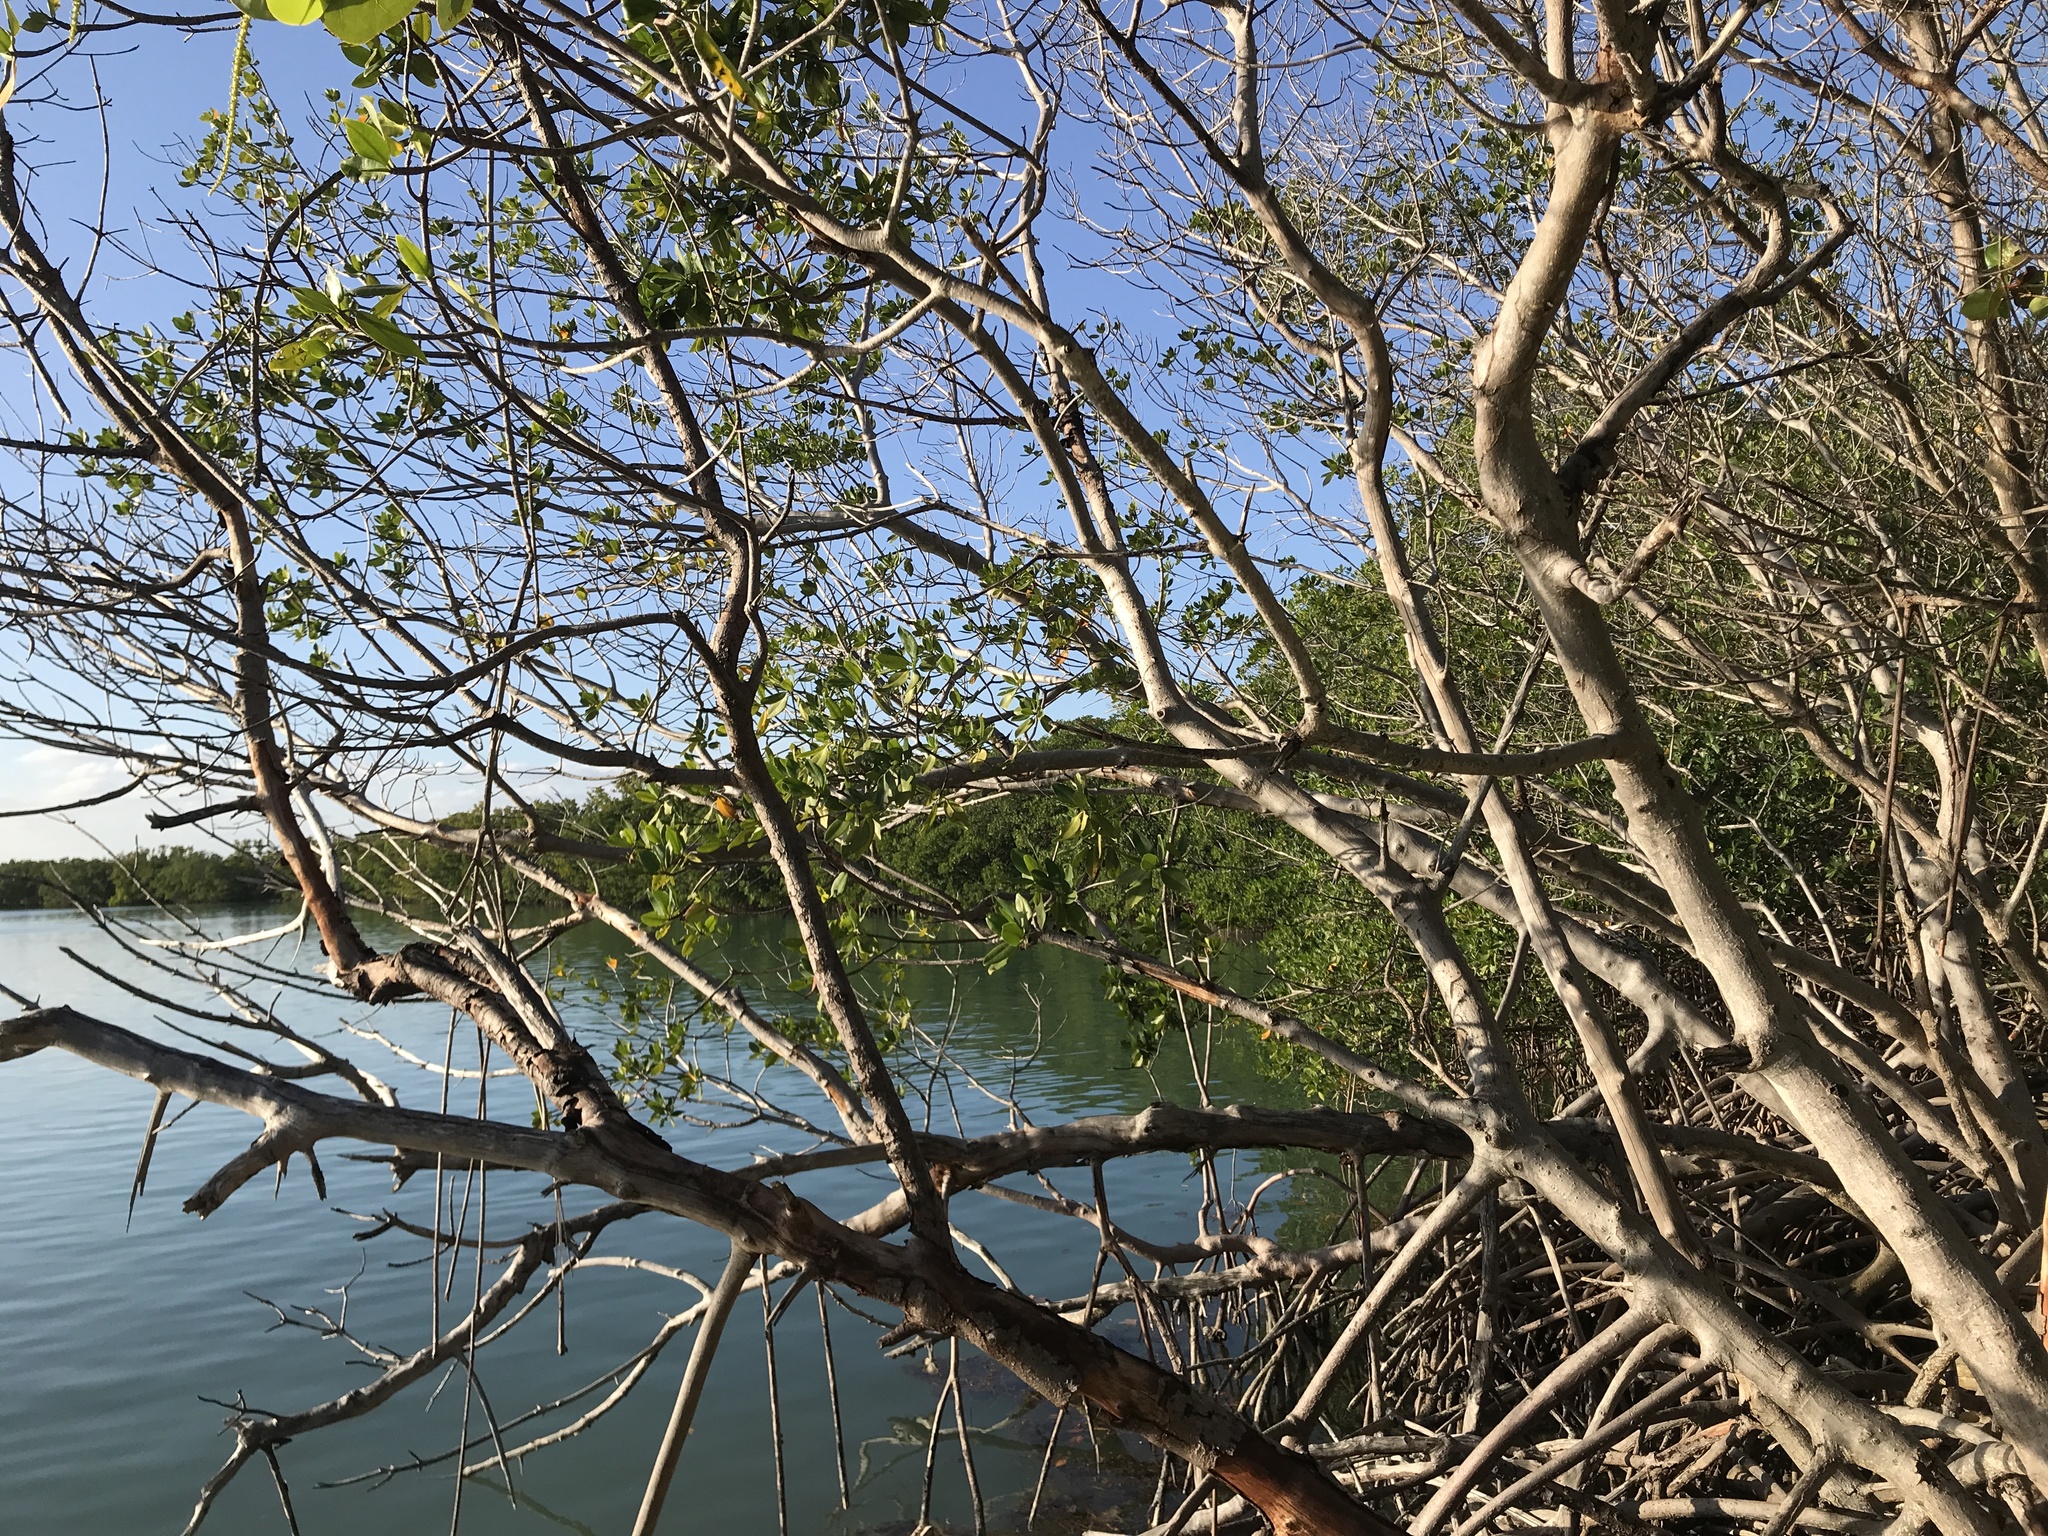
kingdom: Plantae
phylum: Tracheophyta
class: Magnoliopsida
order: Malpighiales
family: Rhizophoraceae
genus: Rhizophora
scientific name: Rhizophora mangle
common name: Red mangrove
